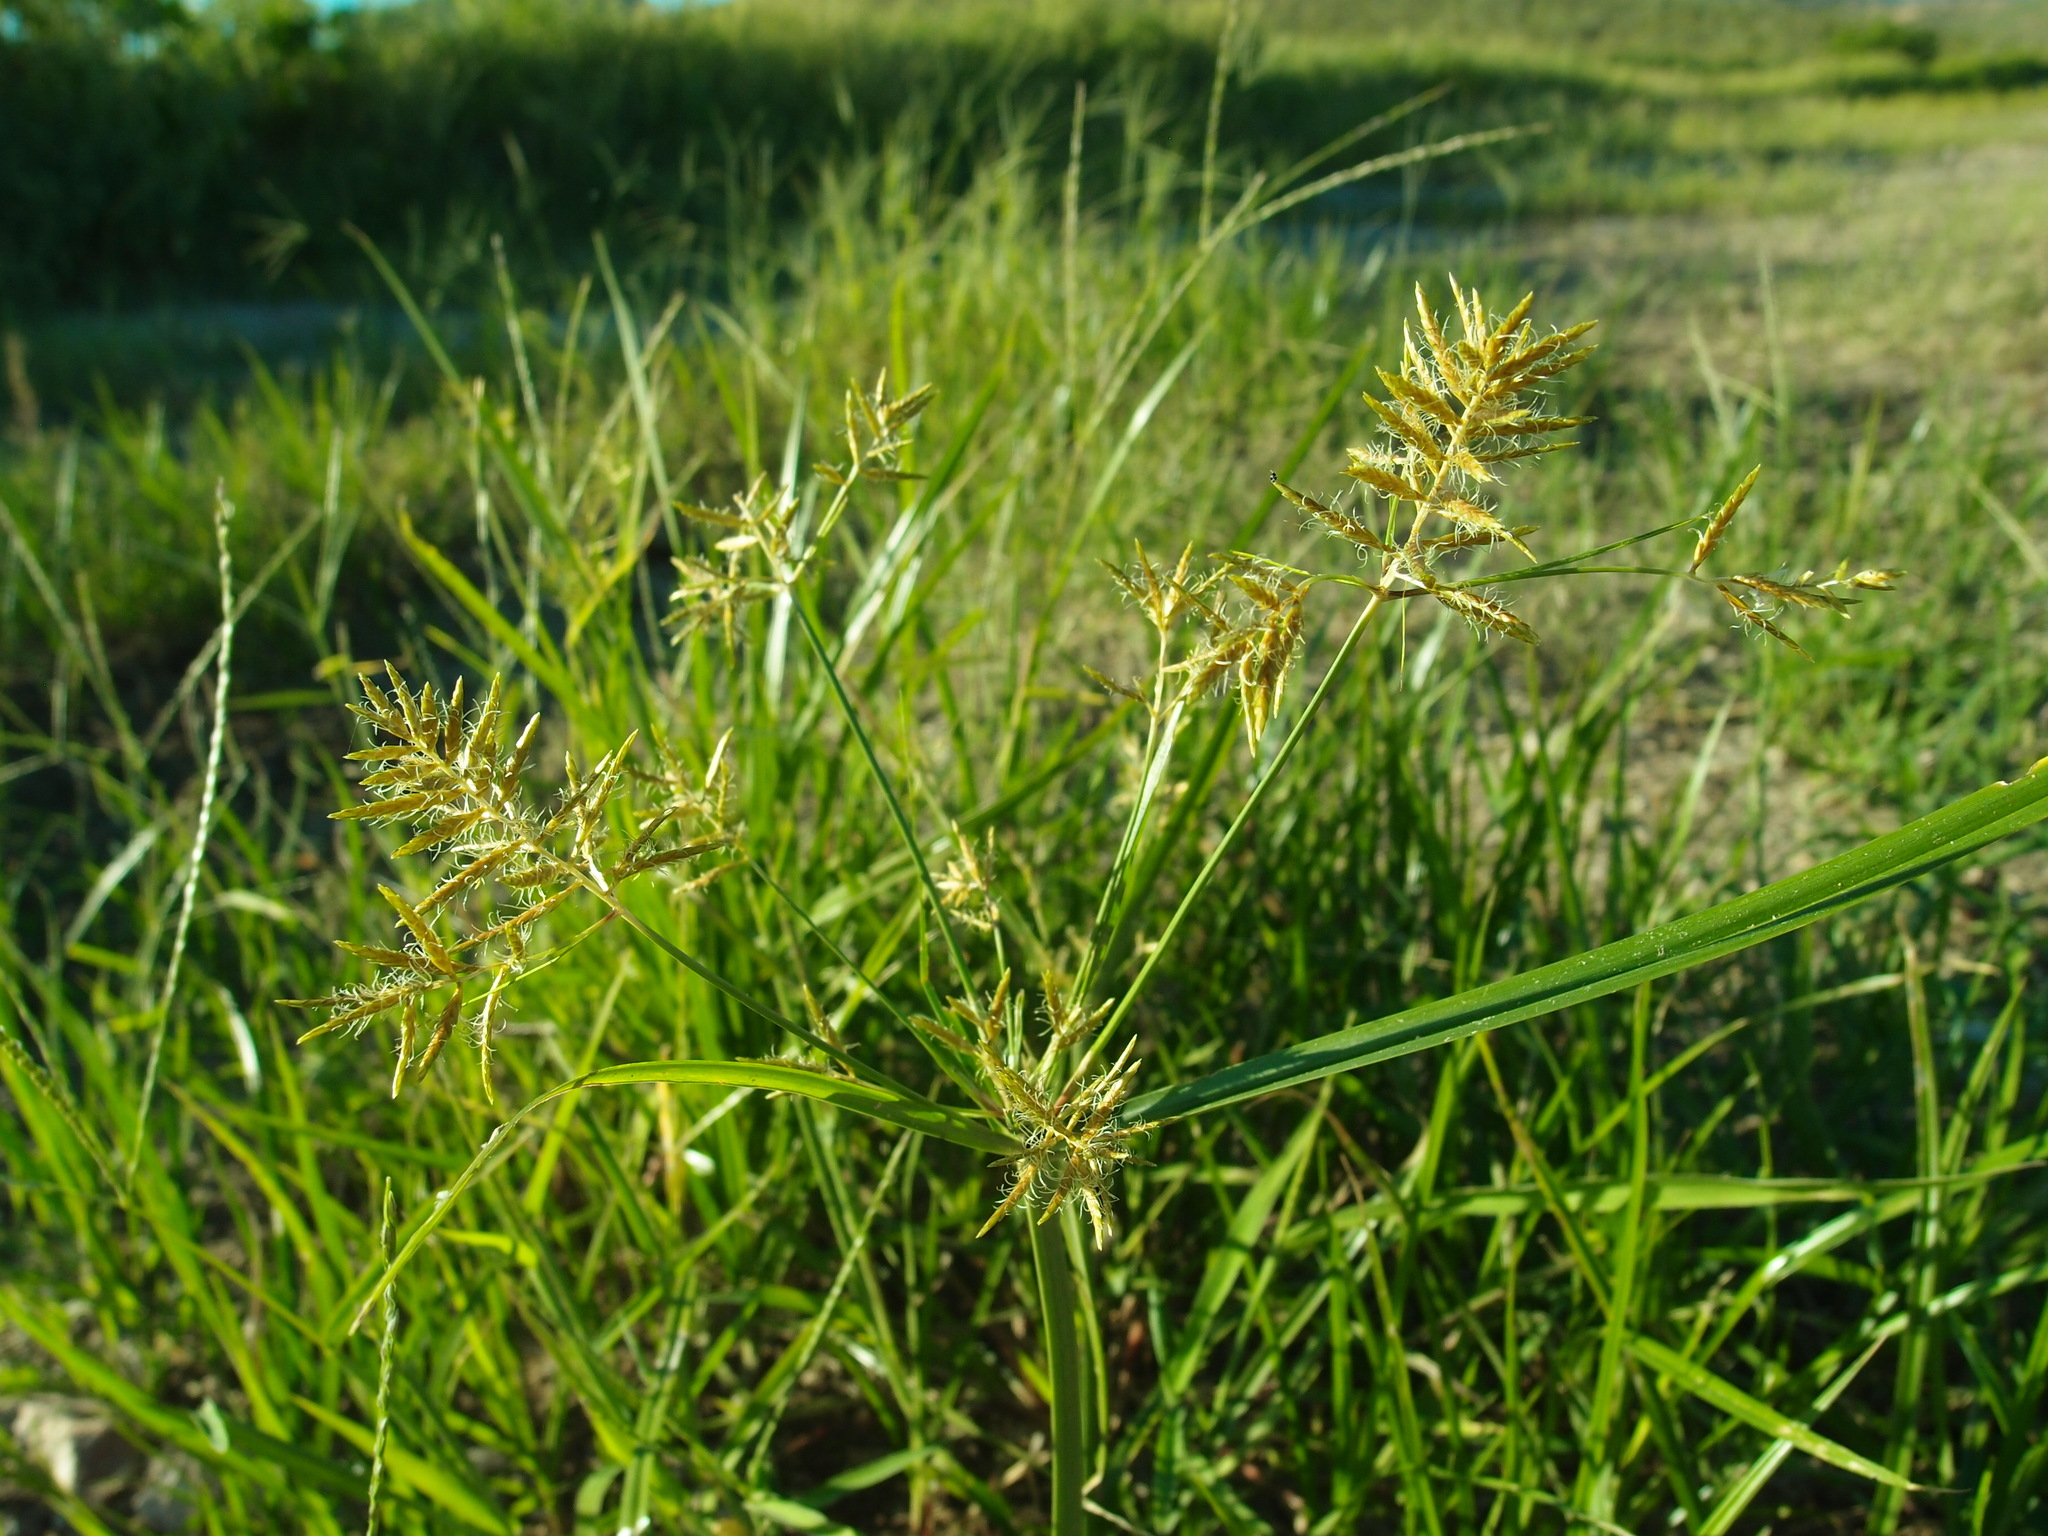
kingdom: Plantae
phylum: Tracheophyta
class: Liliopsida
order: Poales
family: Cyperaceae
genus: Cyperus
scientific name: Cyperus esculentus
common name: Yellow nutsedge
